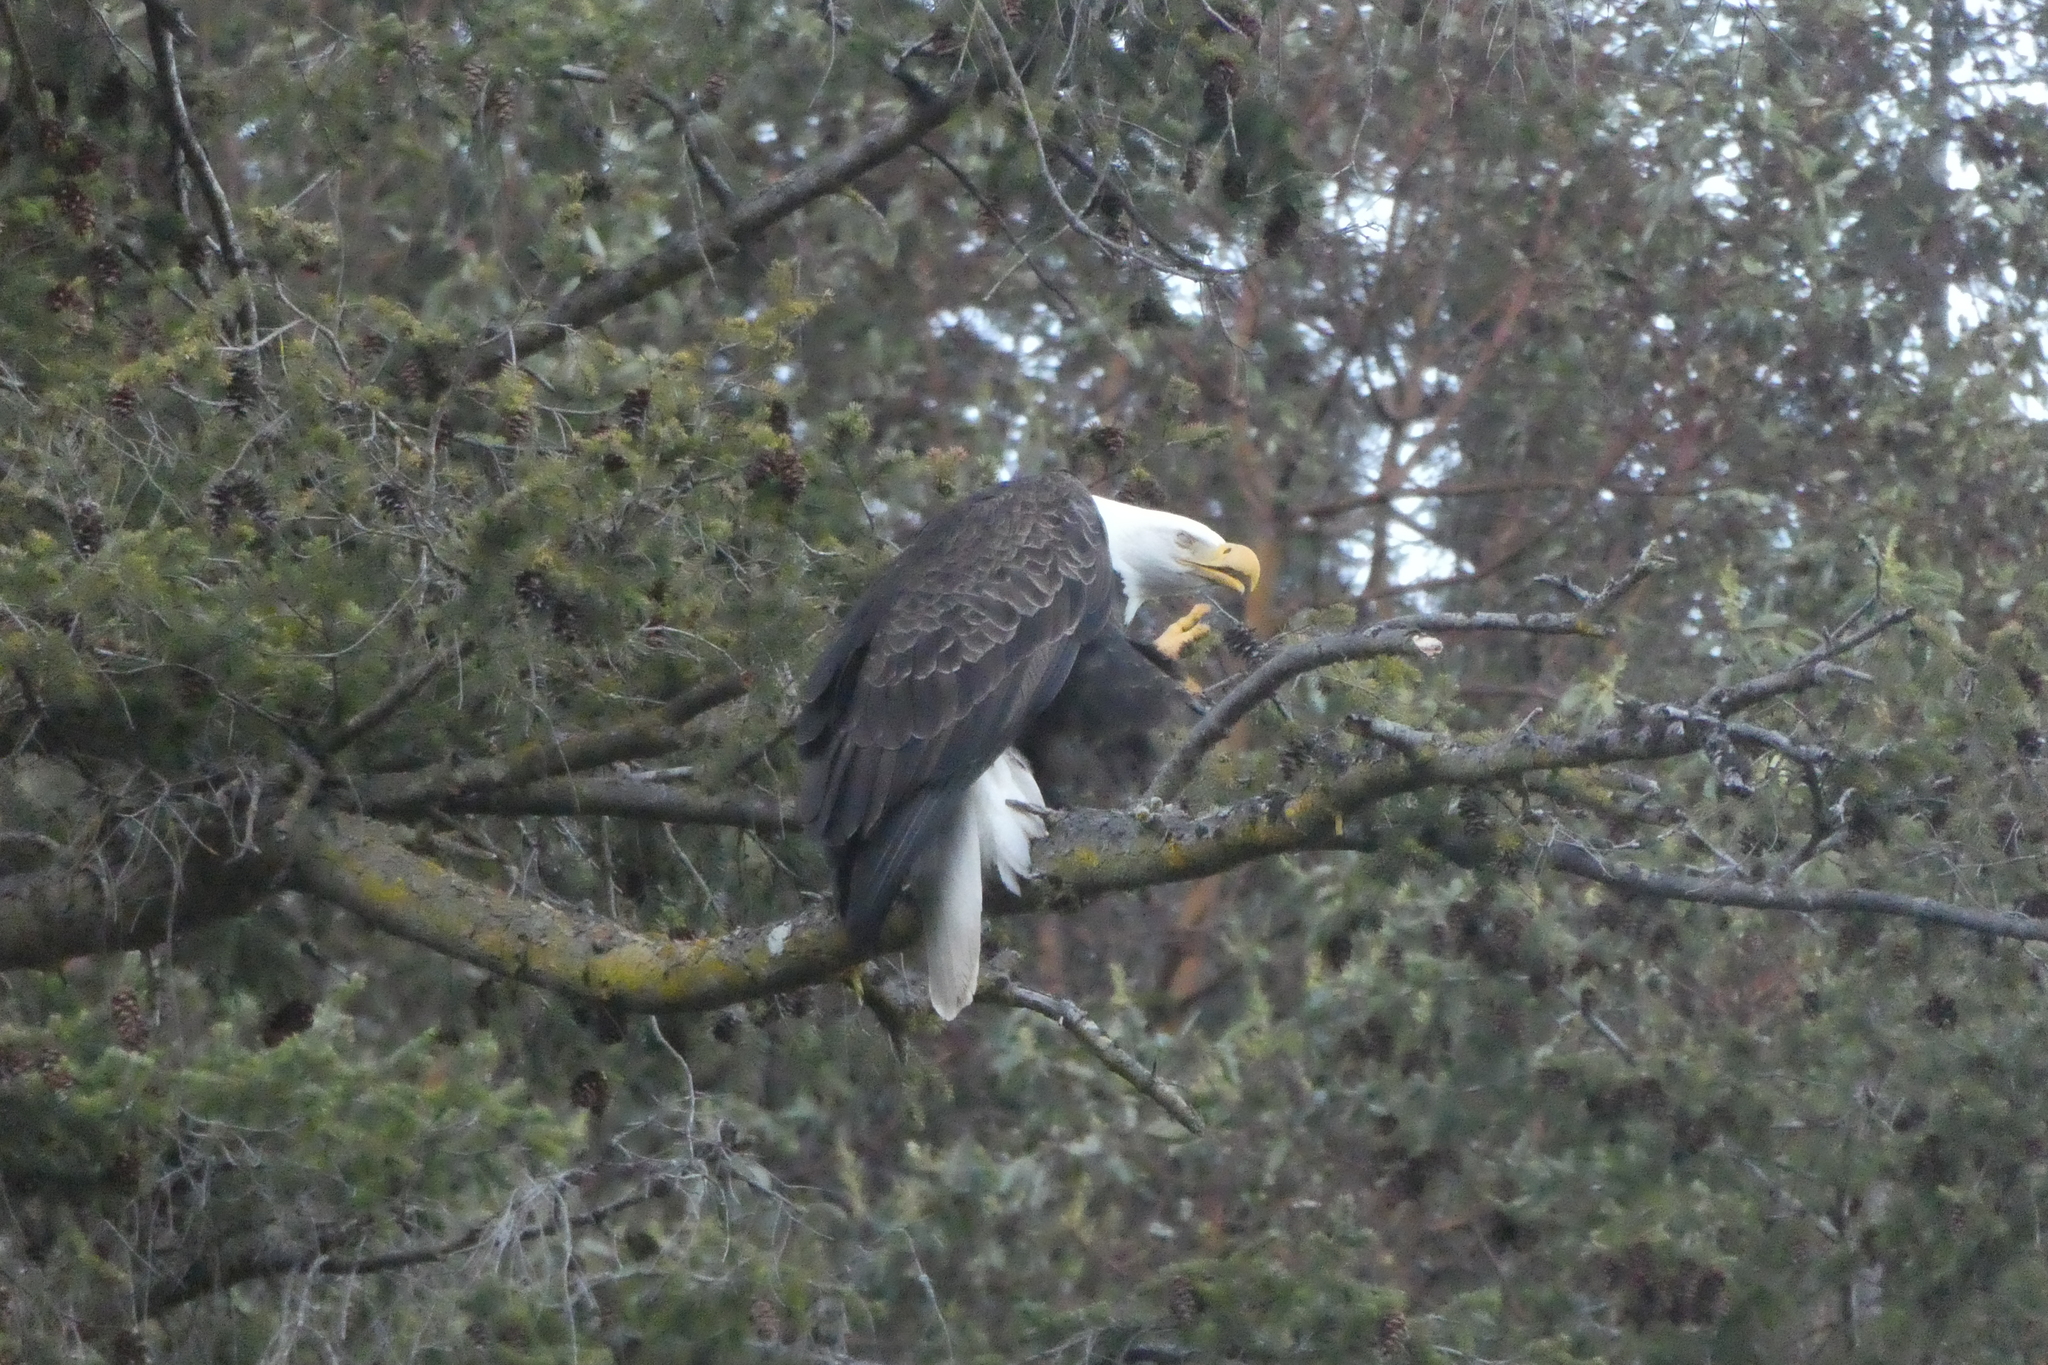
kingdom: Animalia
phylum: Chordata
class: Aves
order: Accipitriformes
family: Accipitridae
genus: Haliaeetus
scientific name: Haliaeetus leucocephalus
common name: Bald eagle
